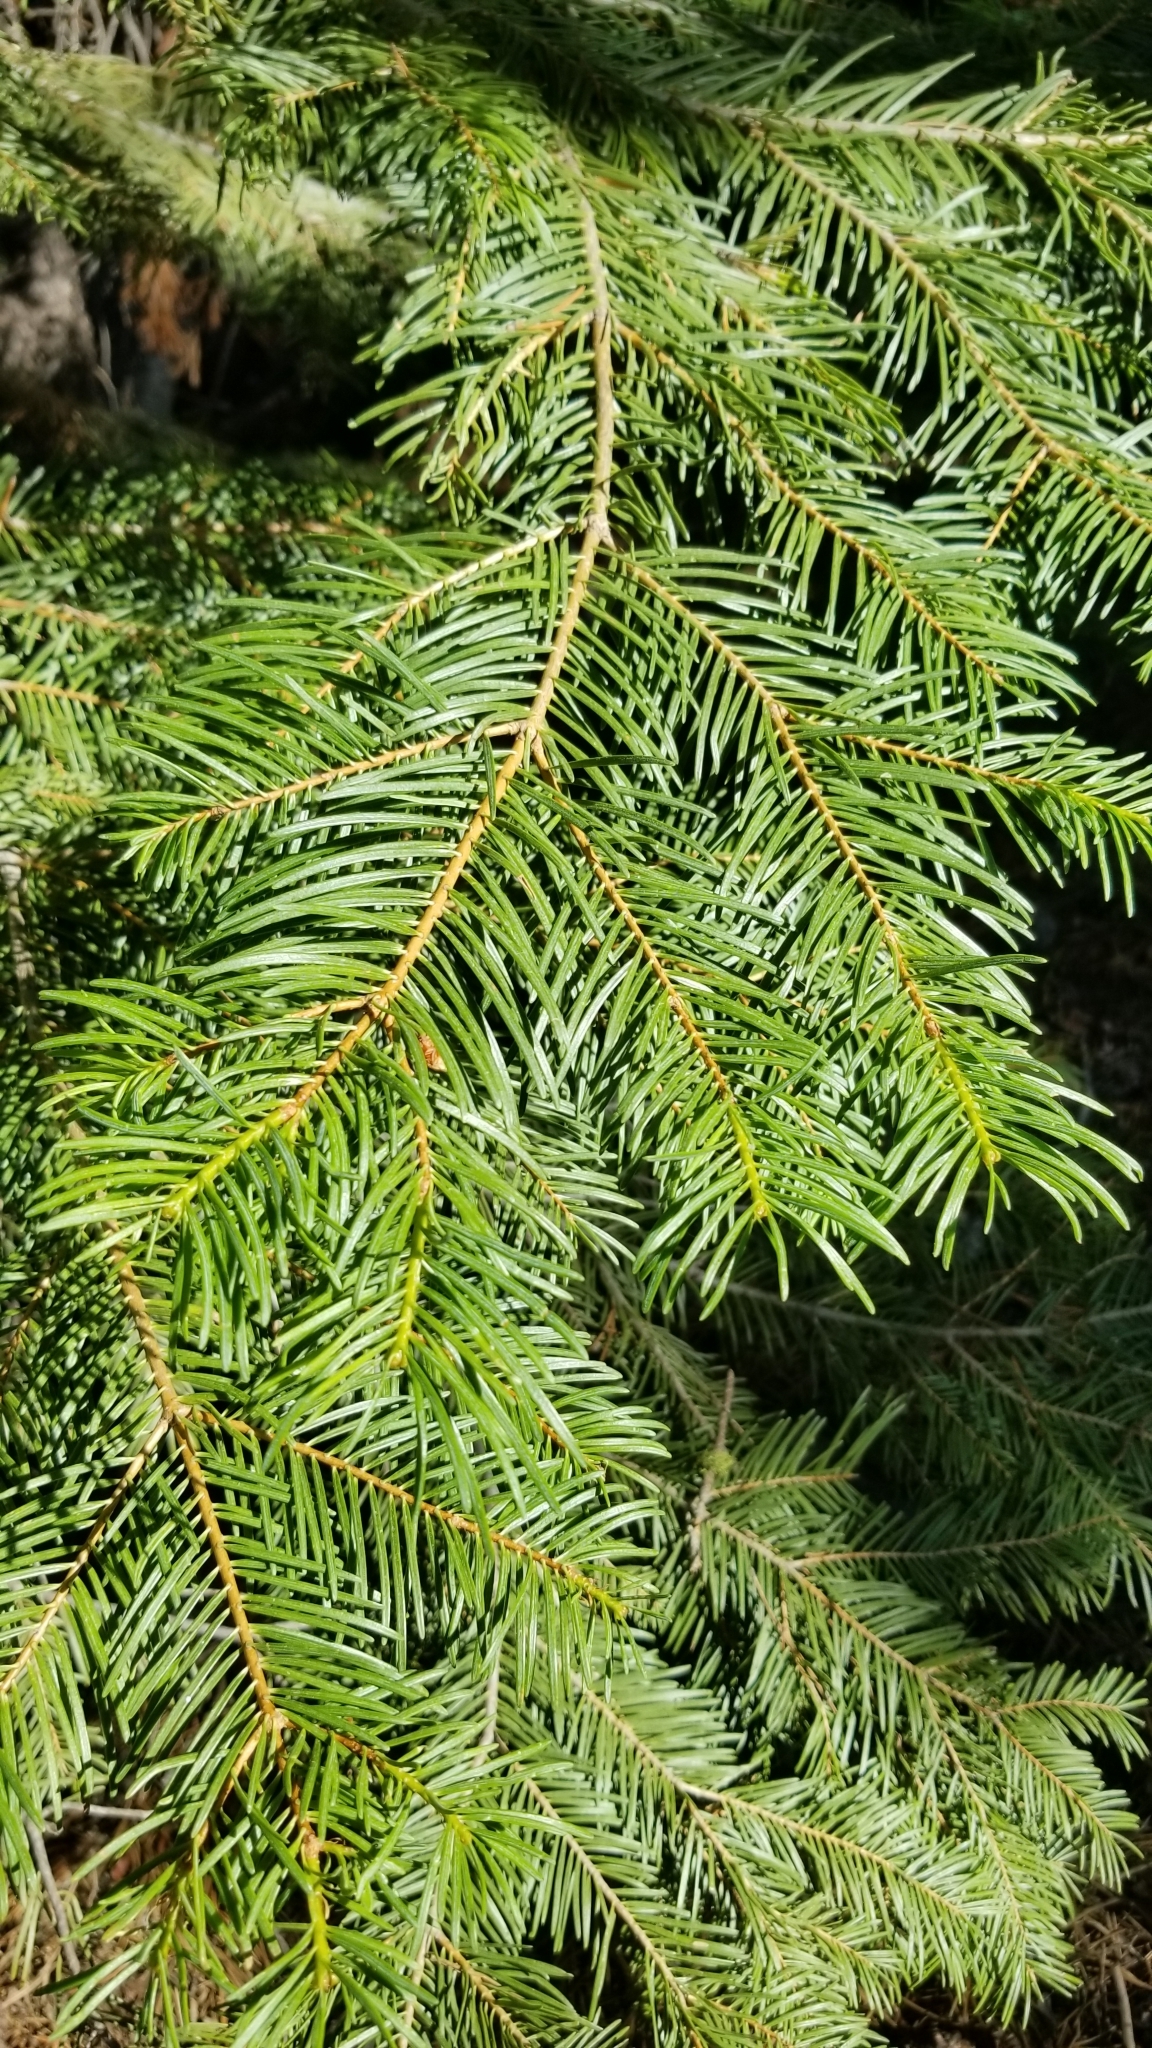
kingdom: Plantae
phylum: Tracheophyta
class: Pinopsida
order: Pinales
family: Pinaceae
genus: Abies
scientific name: Abies concolor
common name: Colorado fir
